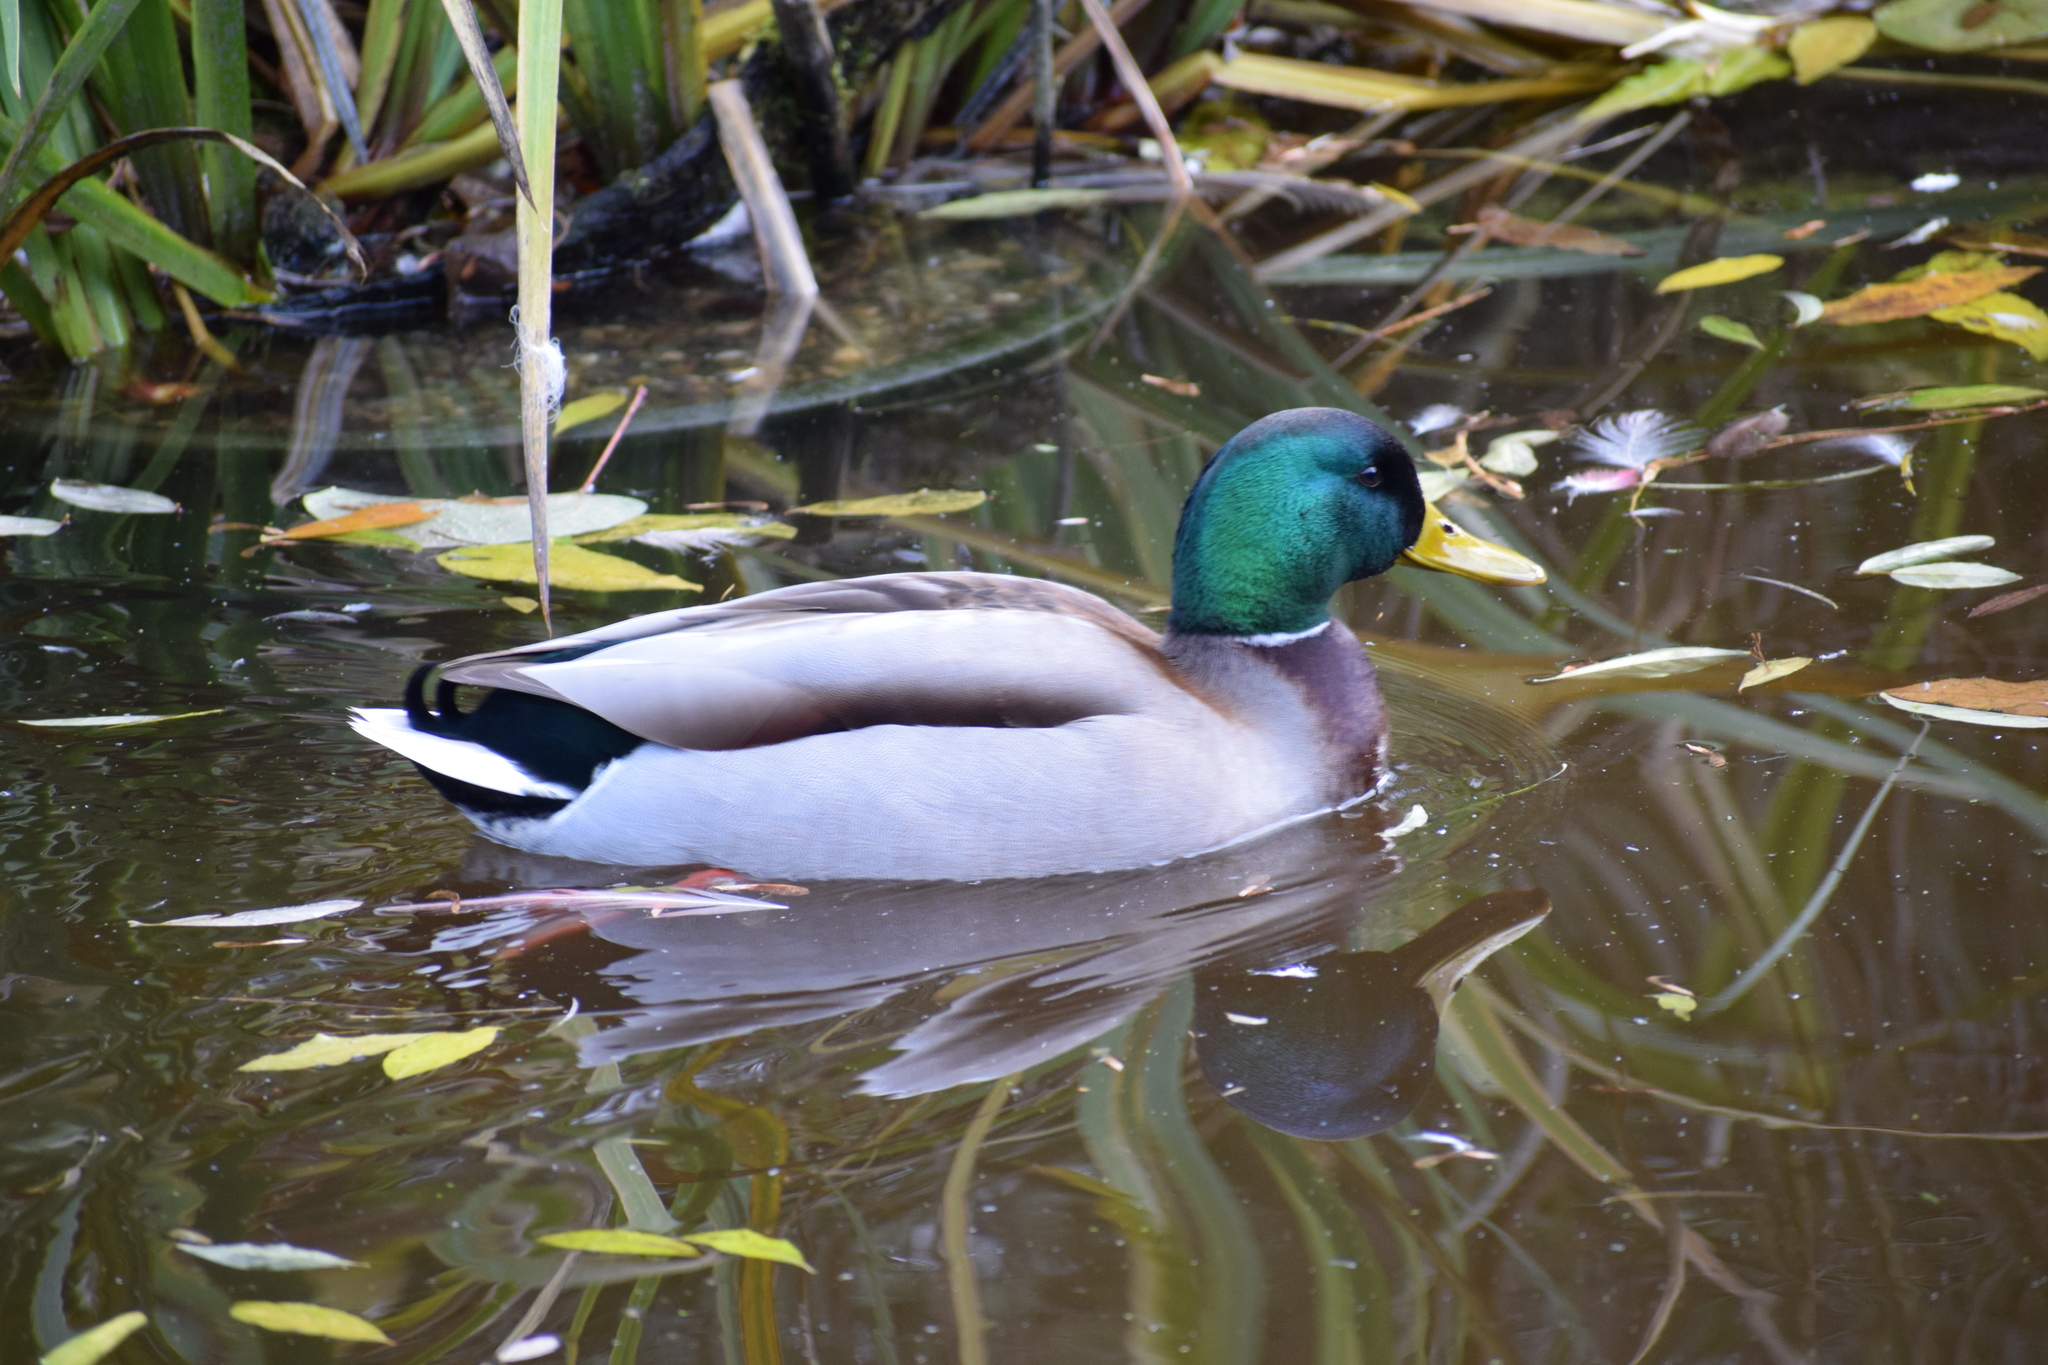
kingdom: Animalia
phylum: Chordata
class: Aves
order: Anseriformes
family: Anatidae
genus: Anas
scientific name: Anas platyrhynchos
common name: Mallard
